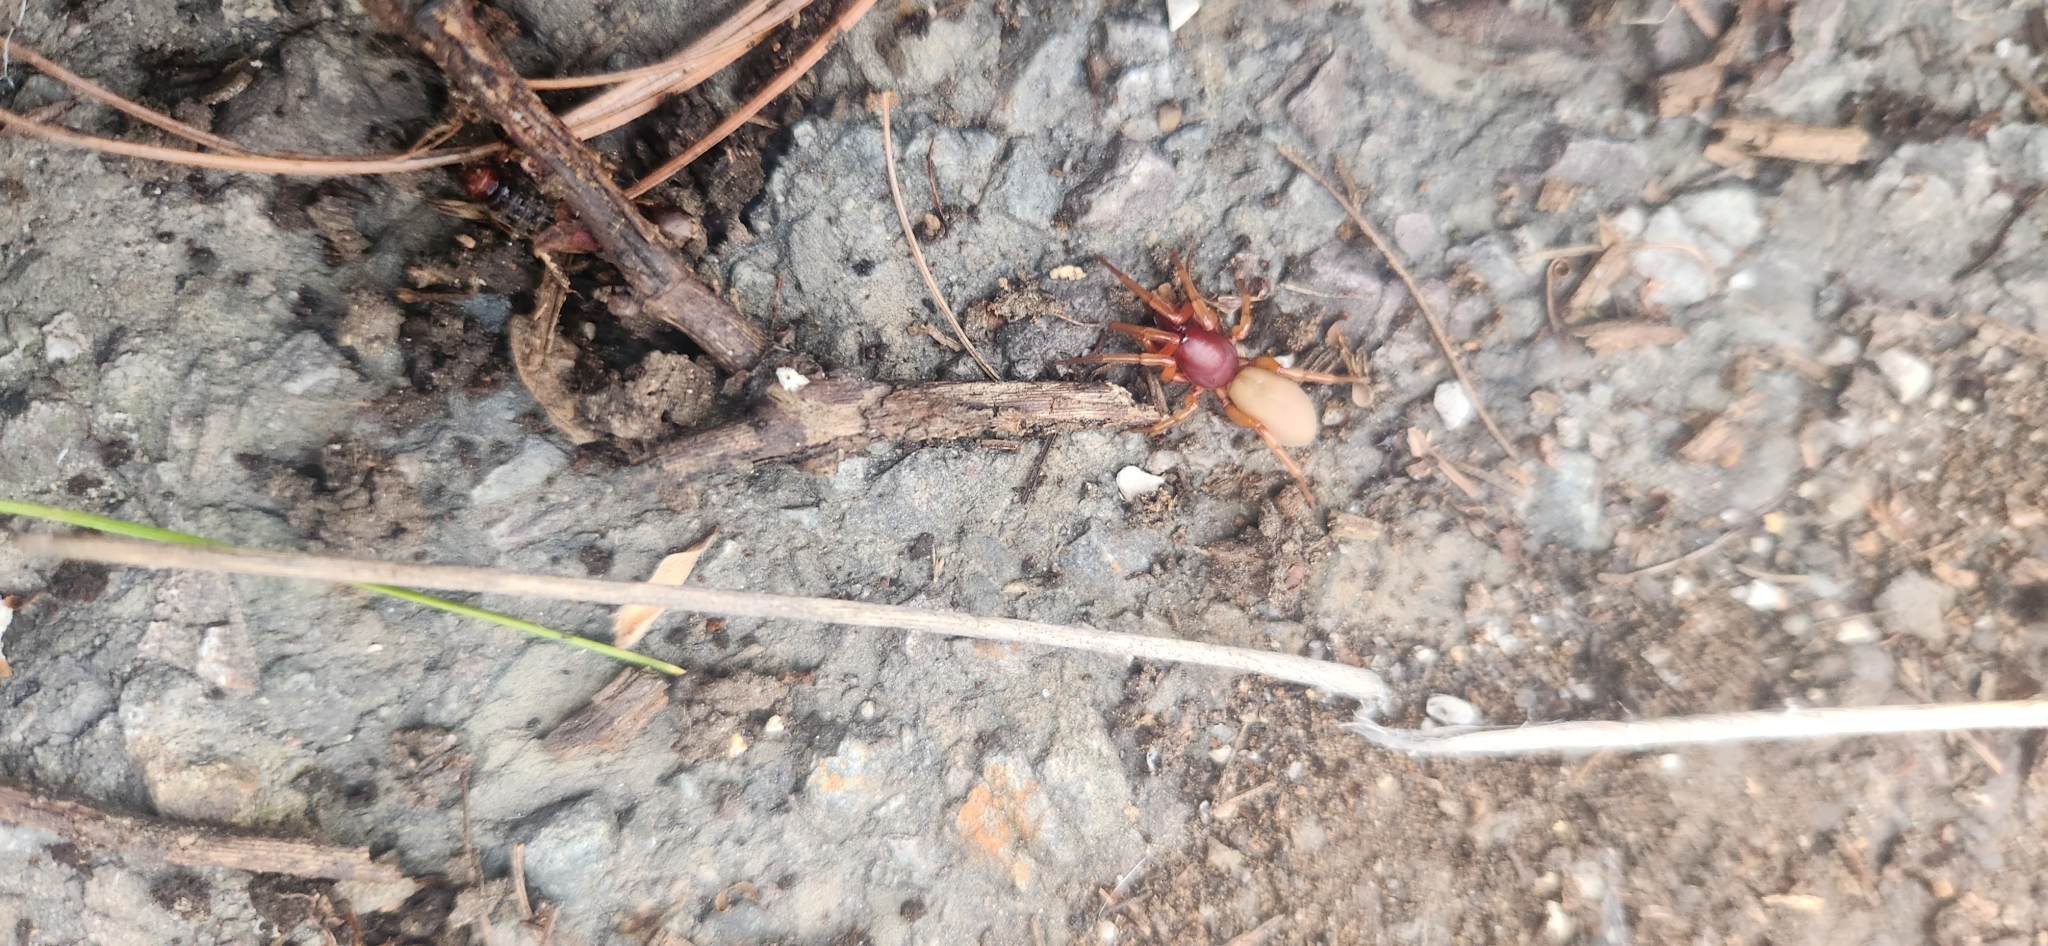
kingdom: Animalia
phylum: Arthropoda
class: Arachnida
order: Araneae
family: Dysderidae
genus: Dysdera
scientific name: Dysdera crocata
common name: Woodlouse spider
